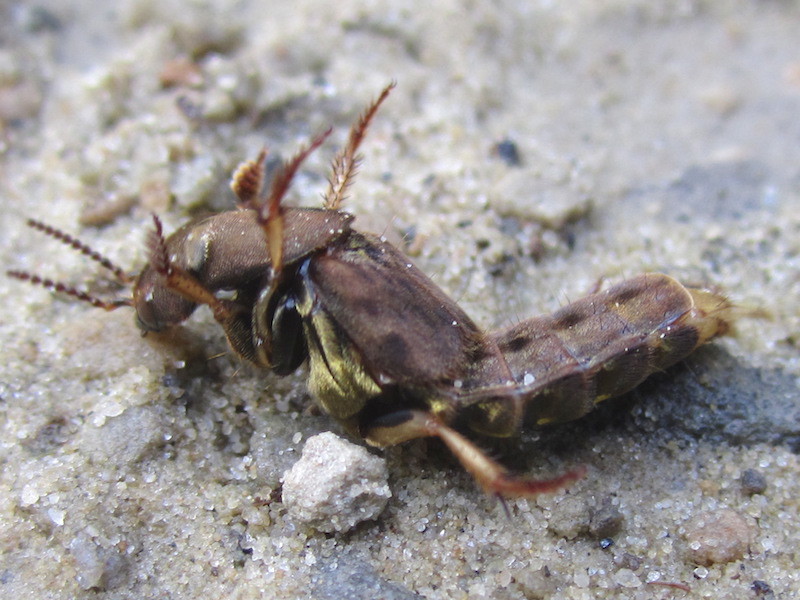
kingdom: Animalia
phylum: Arthropoda
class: Insecta
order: Coleoptera
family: Staphylinidae
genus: Platydracus
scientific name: Platydracus maculosus
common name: Brown rove beetle
